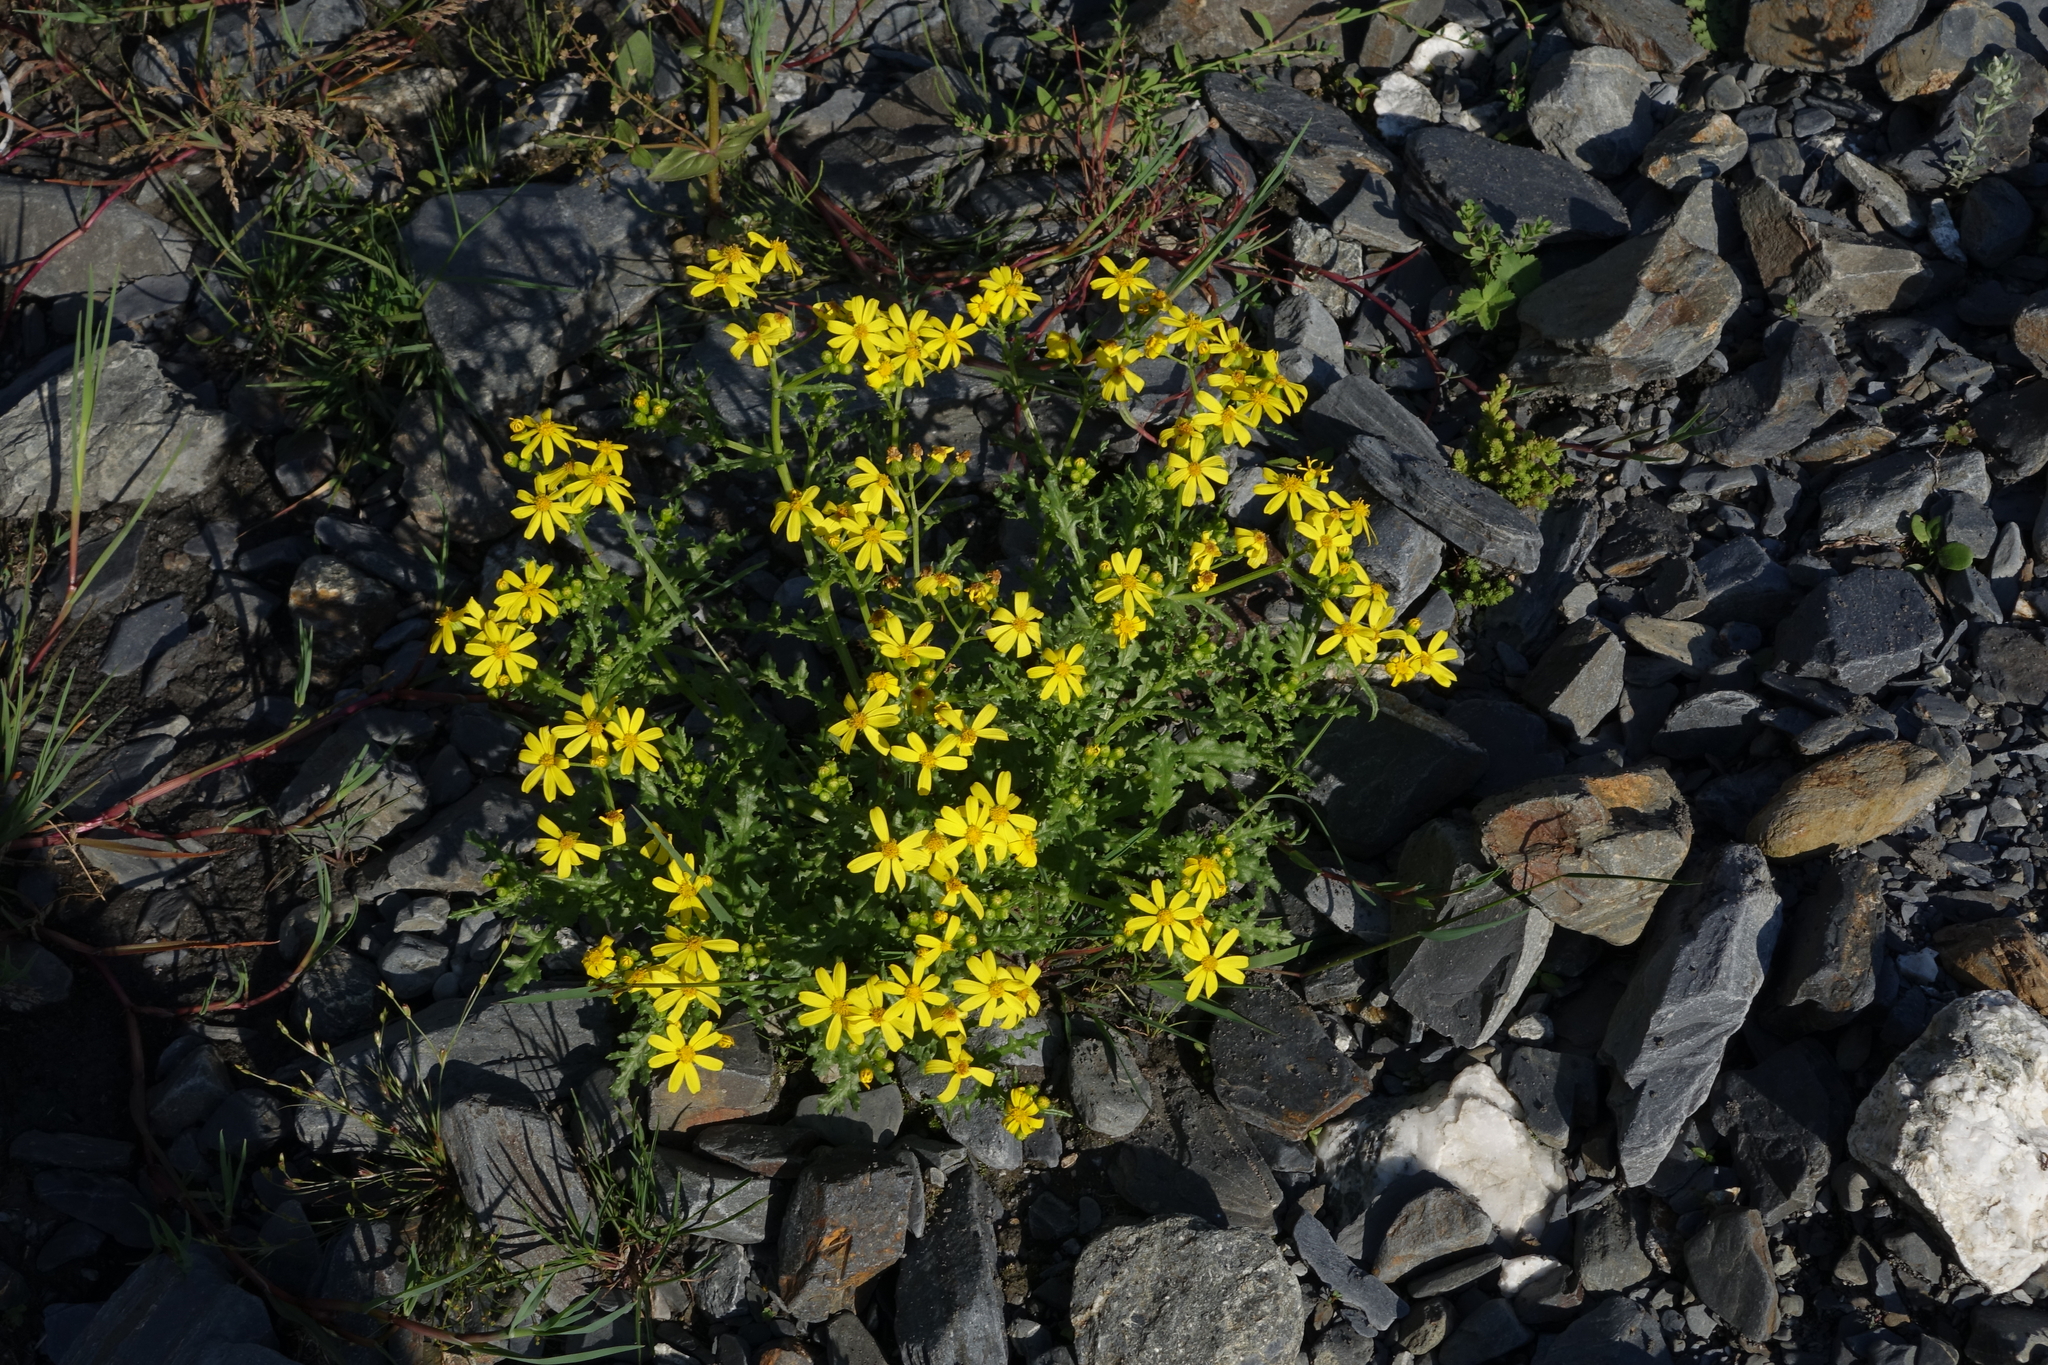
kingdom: Plantae
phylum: Tracheophyta
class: Magnoliopsida
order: Asterales
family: Asteraceae
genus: Senecio
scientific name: Senecio leucanthemifolius
